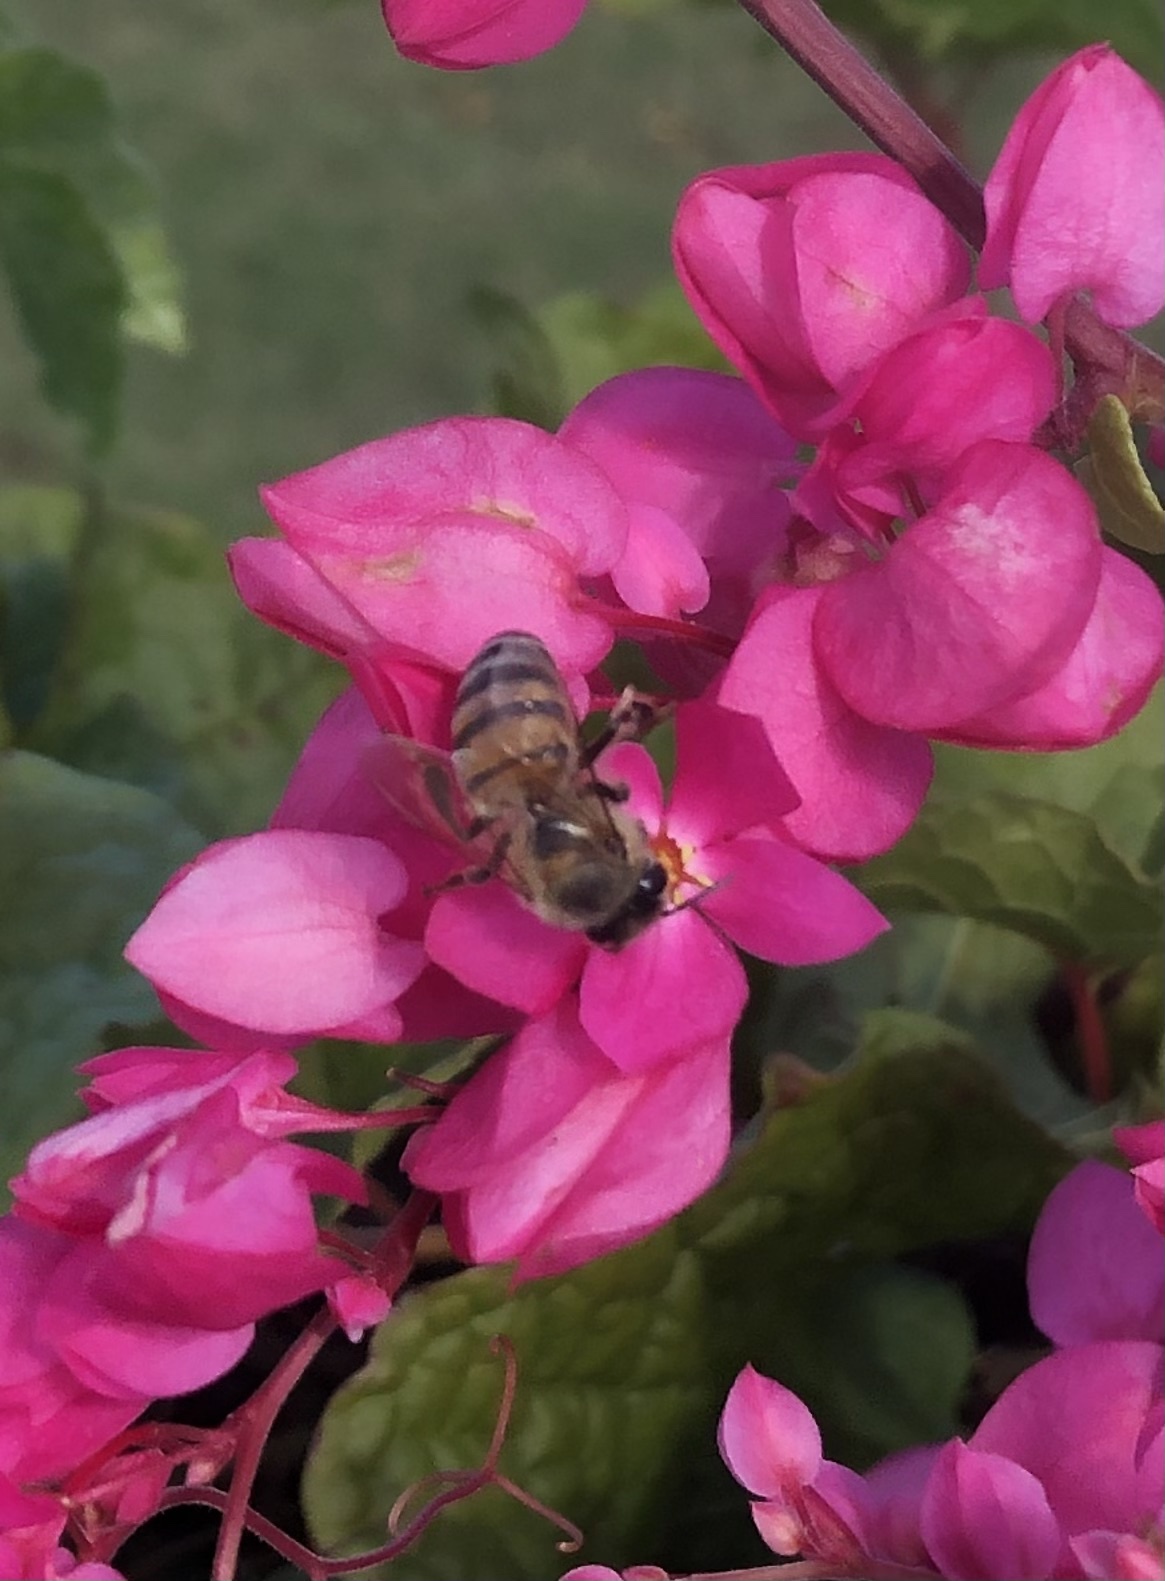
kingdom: Animalia
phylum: Arthropoda
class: Insecta
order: Hymenoptera
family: Apidae
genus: Apis
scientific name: Apis mellifera
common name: Honey bee
